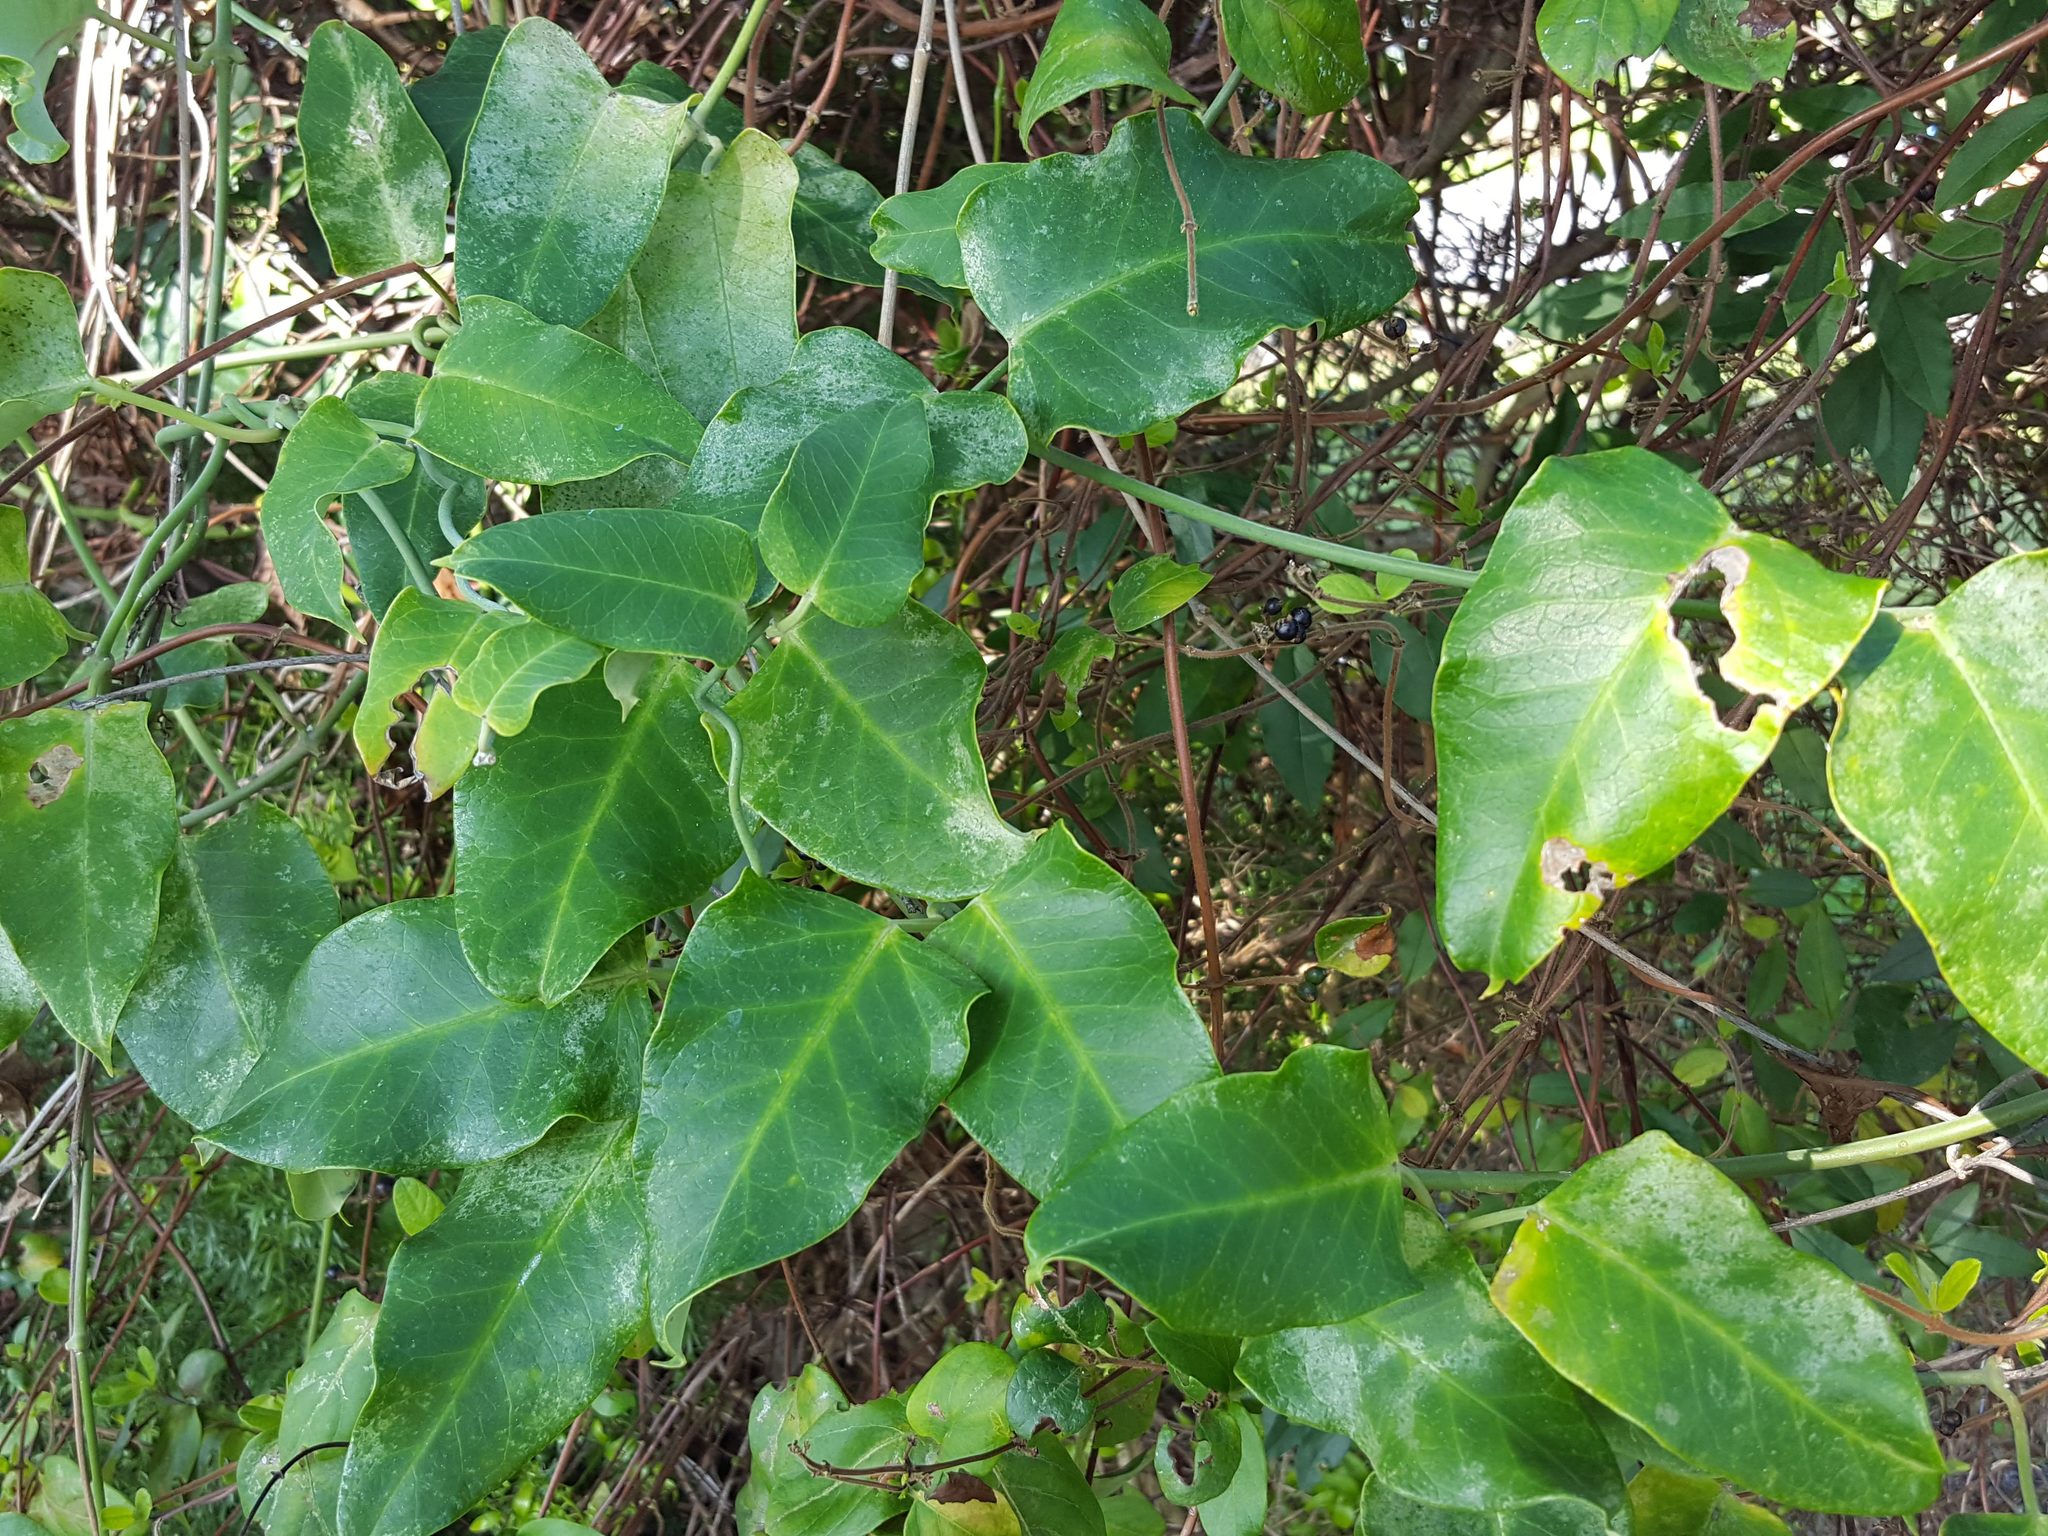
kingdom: Plantae
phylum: Tracheophyta
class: Magnoliopsida
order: Gentianales
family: Apocynaceae
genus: Araujia
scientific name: Araujia sericifera
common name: White bladderflower
